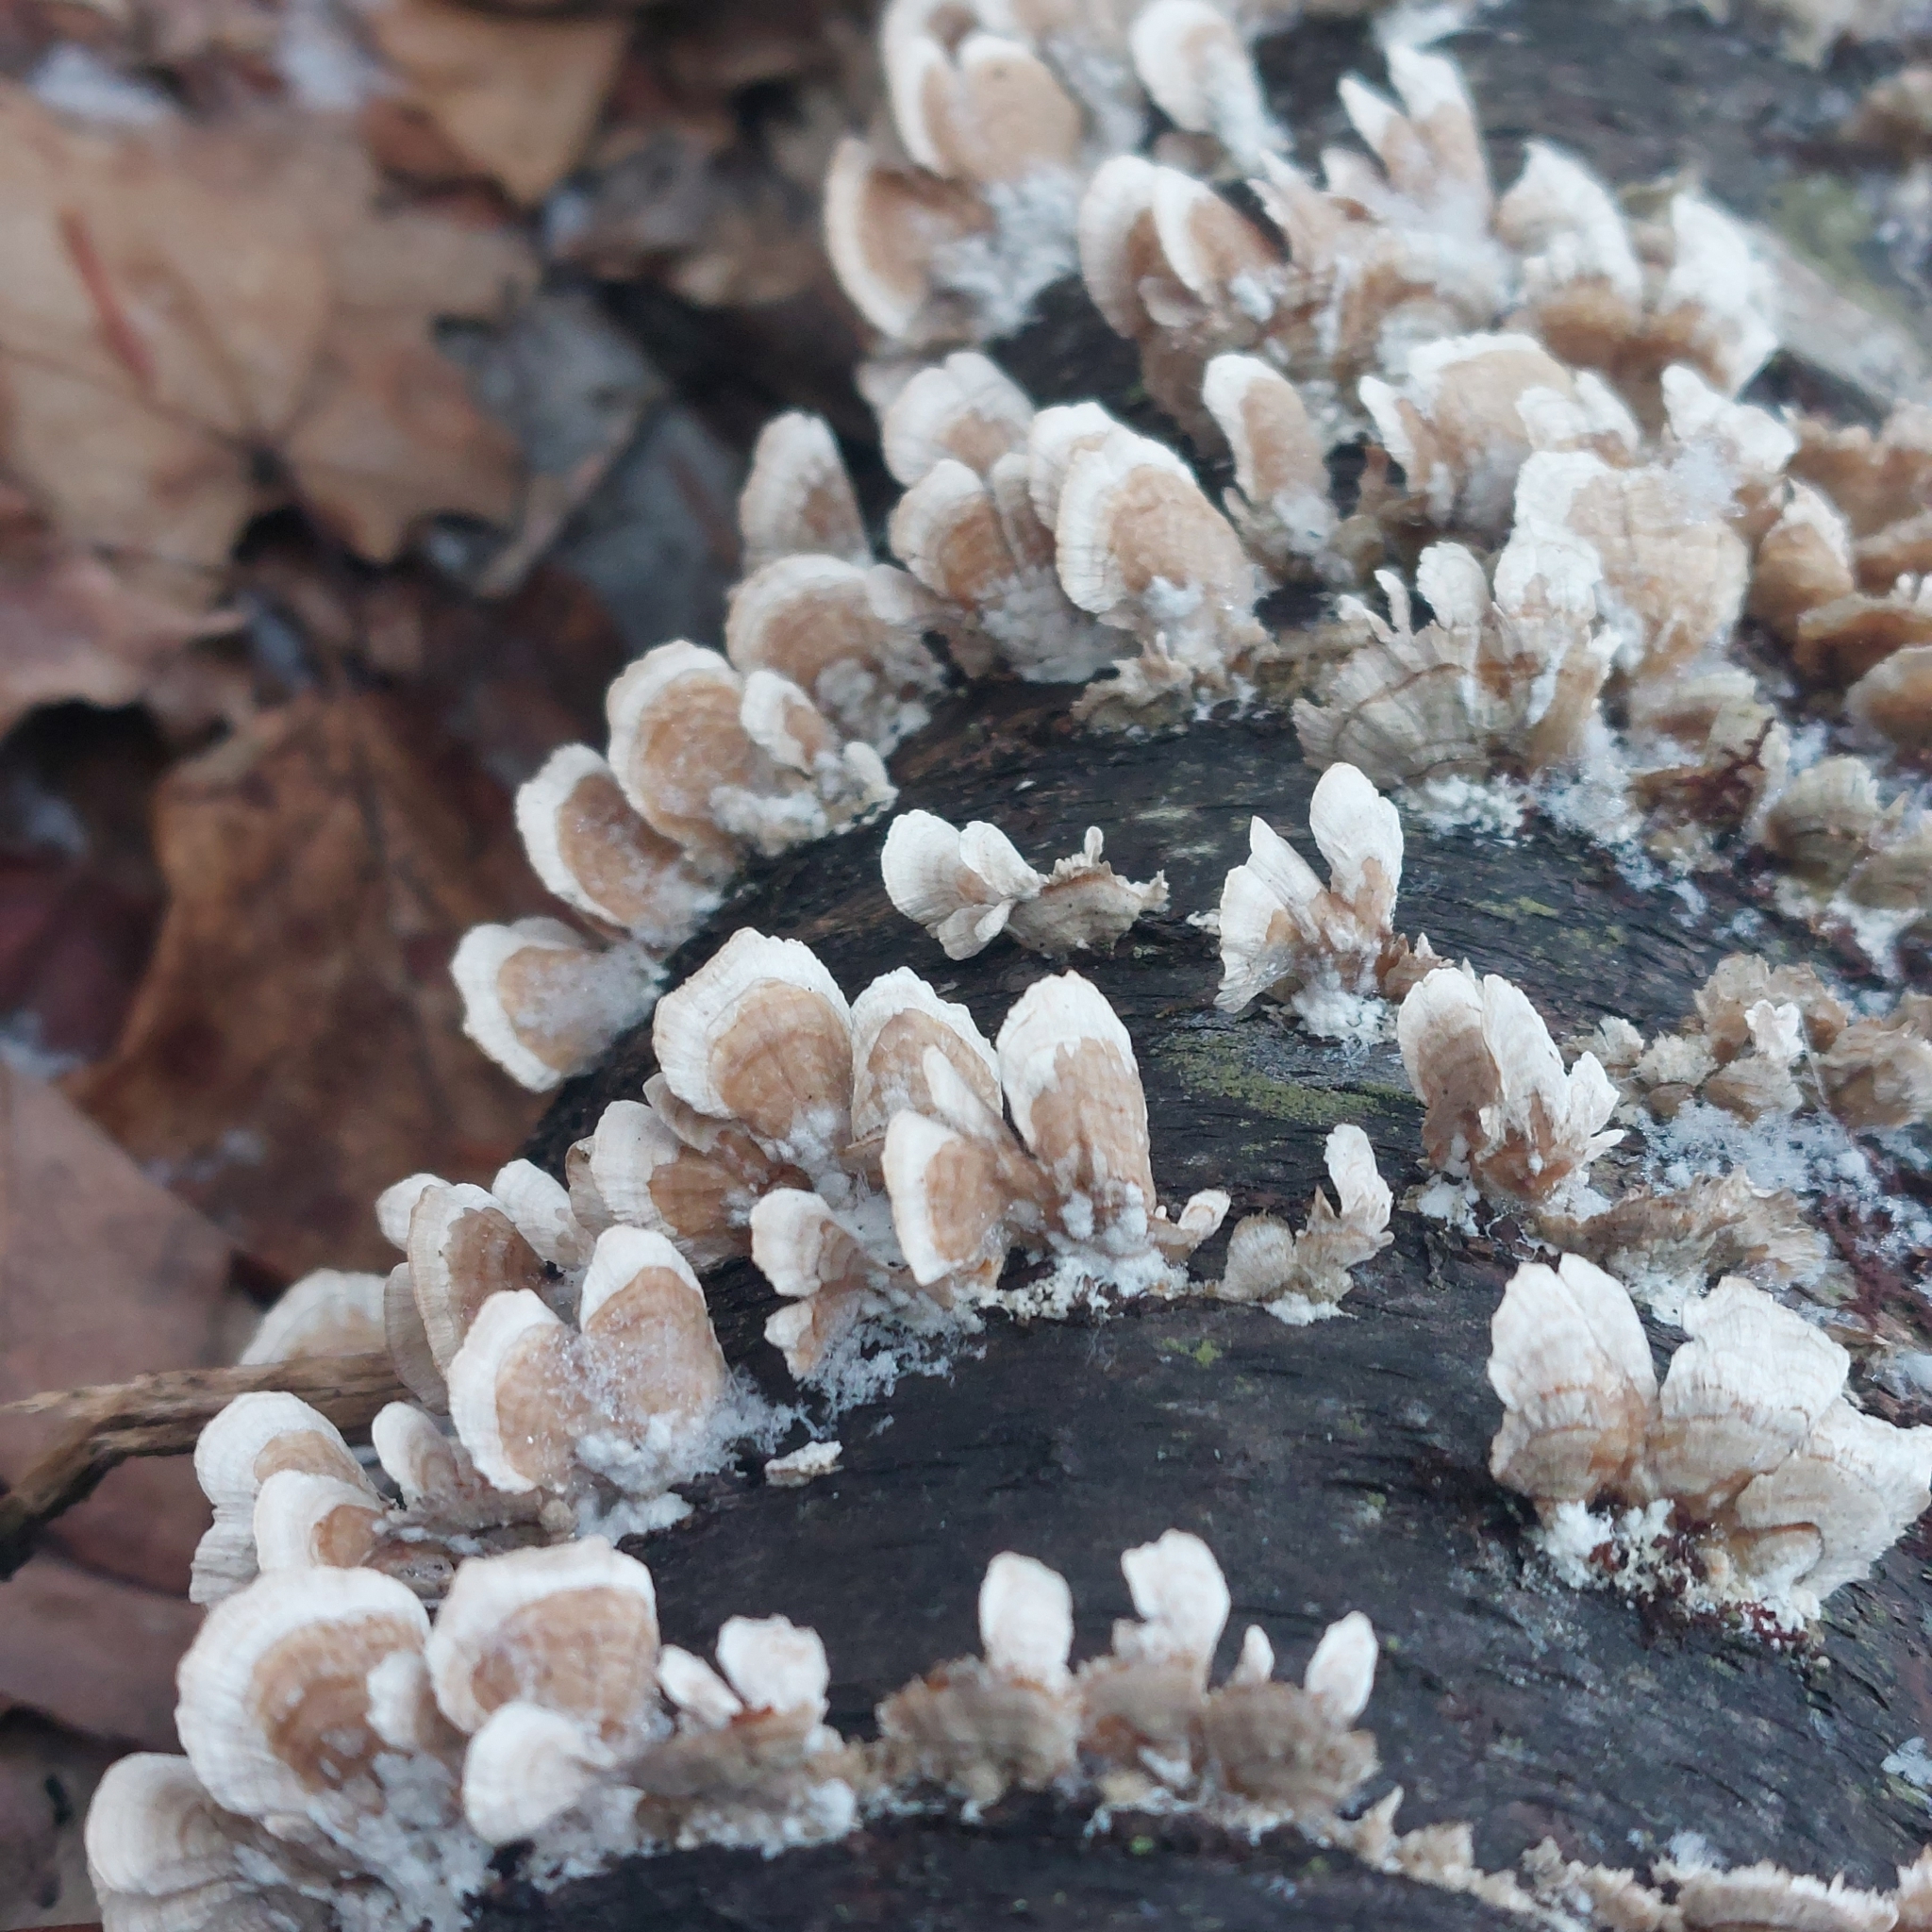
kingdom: Fungi
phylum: Basidiomycota
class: Agaricomycetes
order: Russulales
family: Stereaceae
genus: Stereum
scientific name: Stereum striatum
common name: Silky parchment
